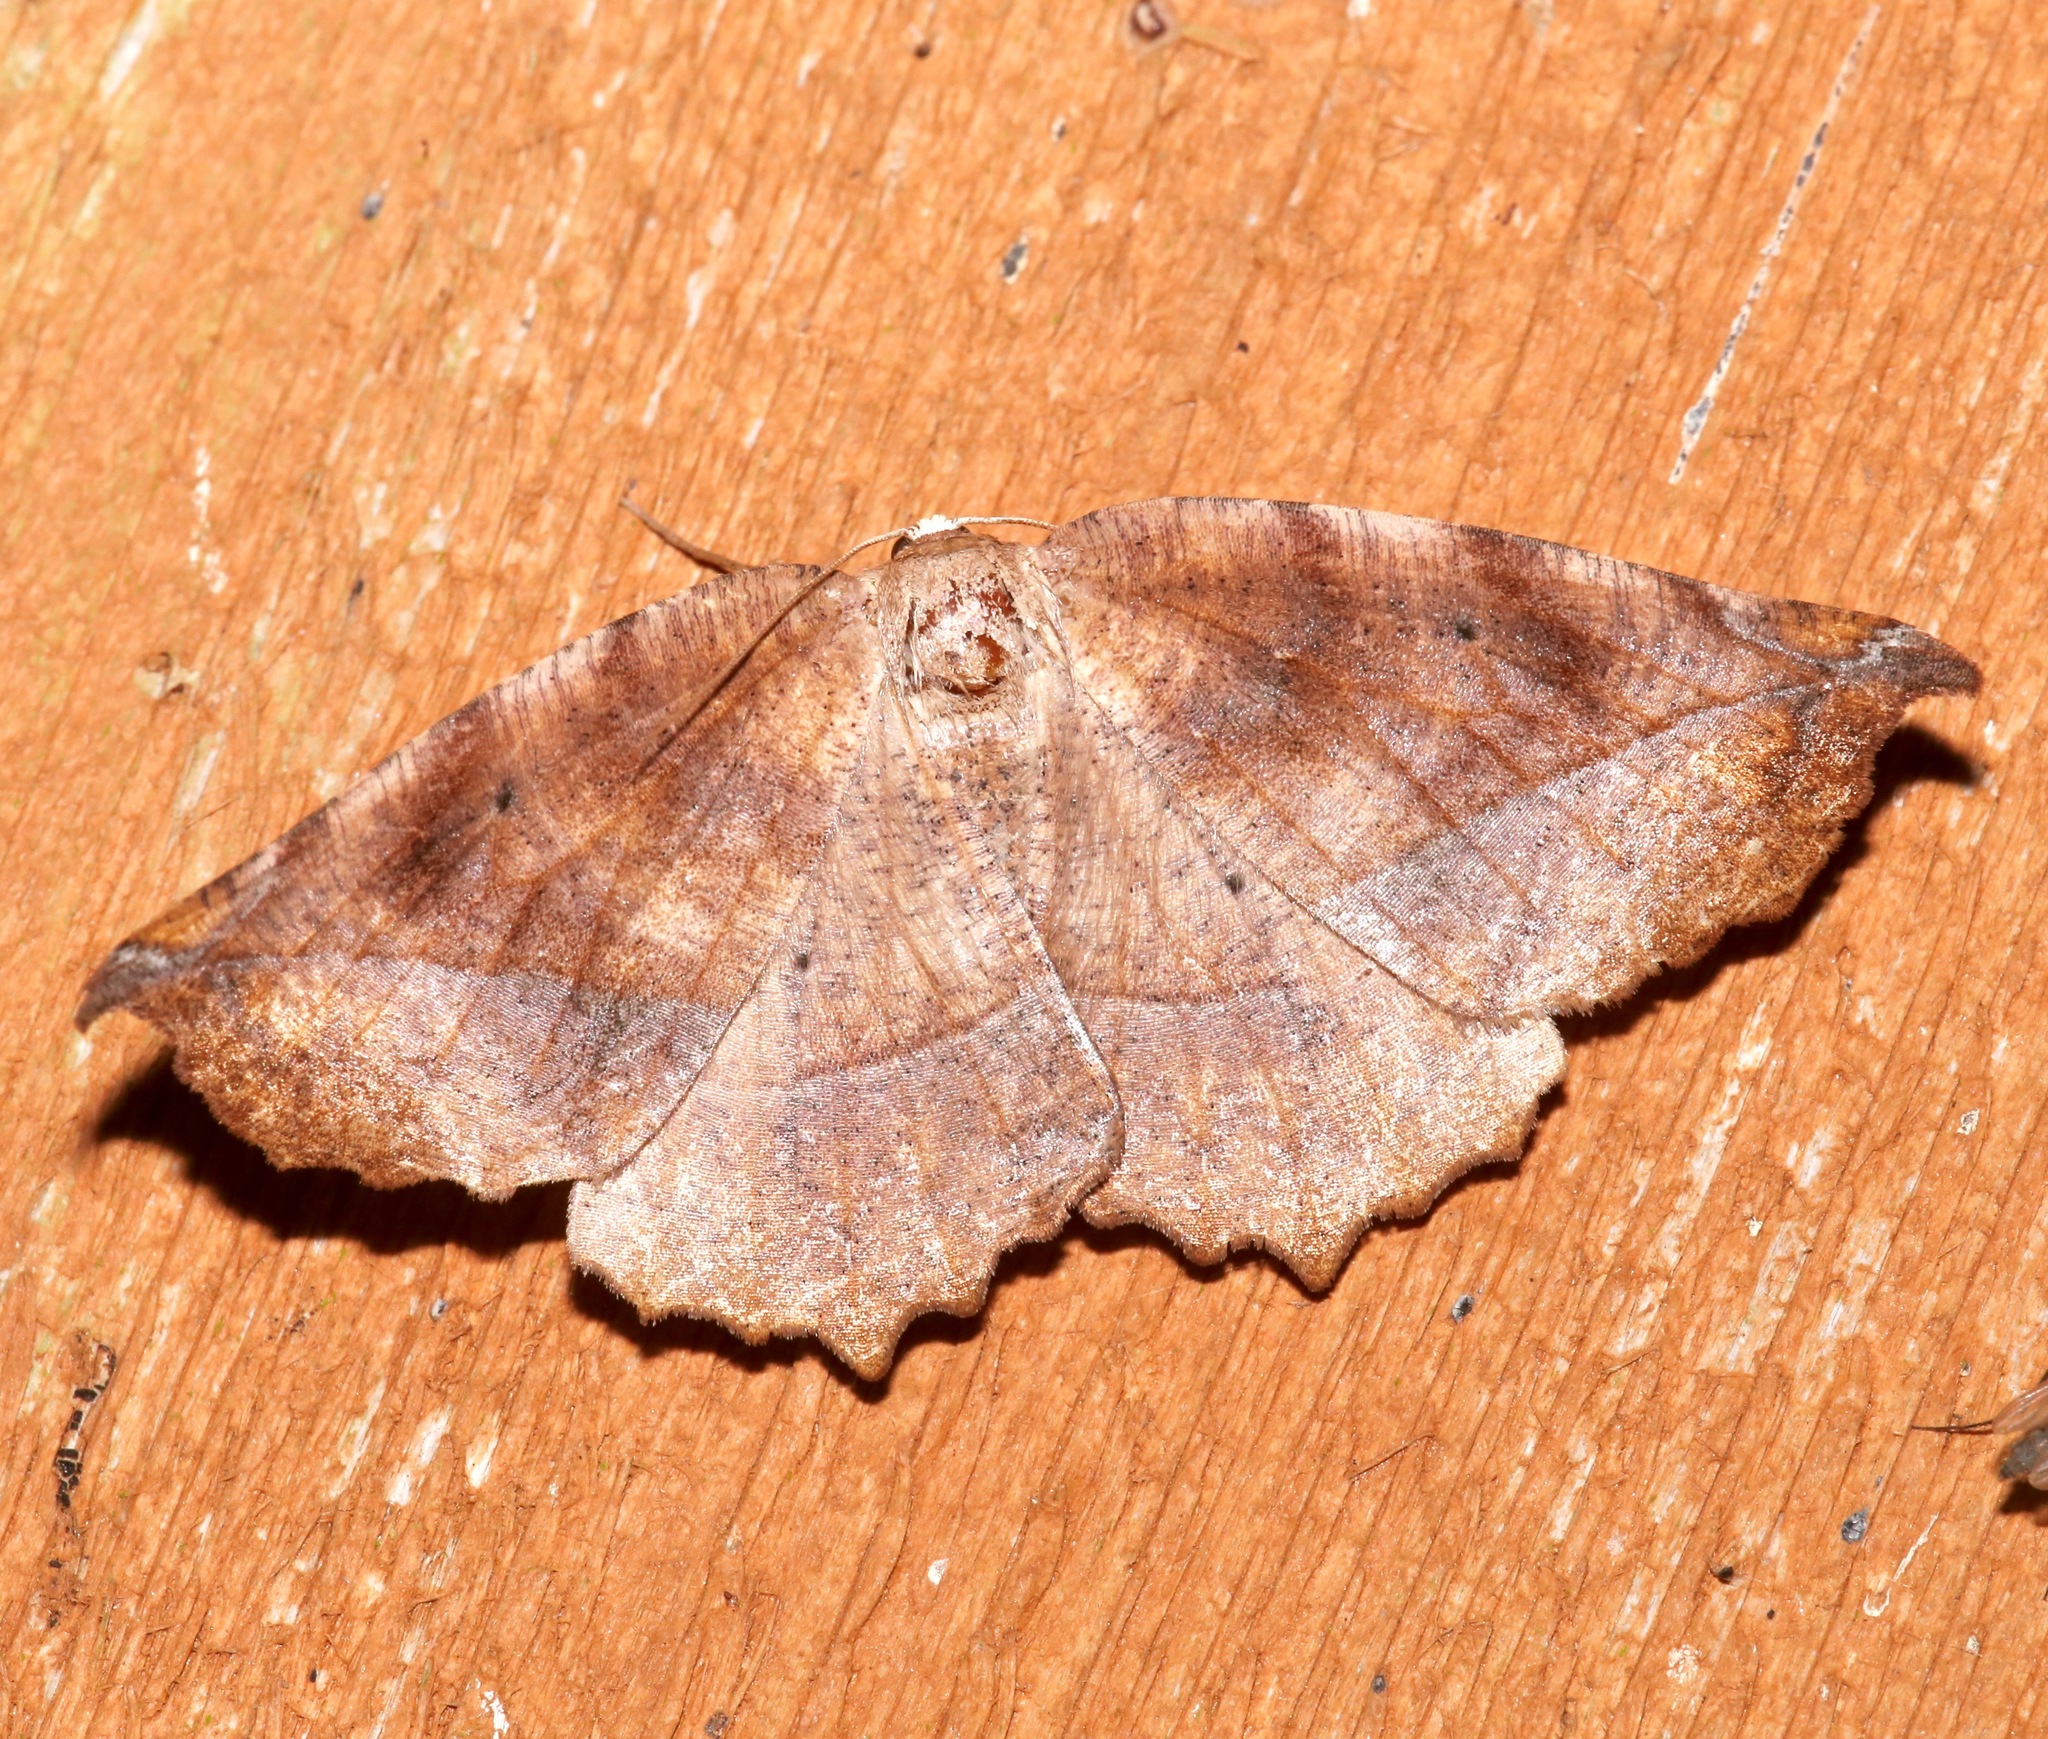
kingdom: Animalia
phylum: Arthropoda
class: Insecta
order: Lepidoptera
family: Geometridae
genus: Eutrapela
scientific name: Eutrapela clemataria
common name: Curved-toothed geometer
